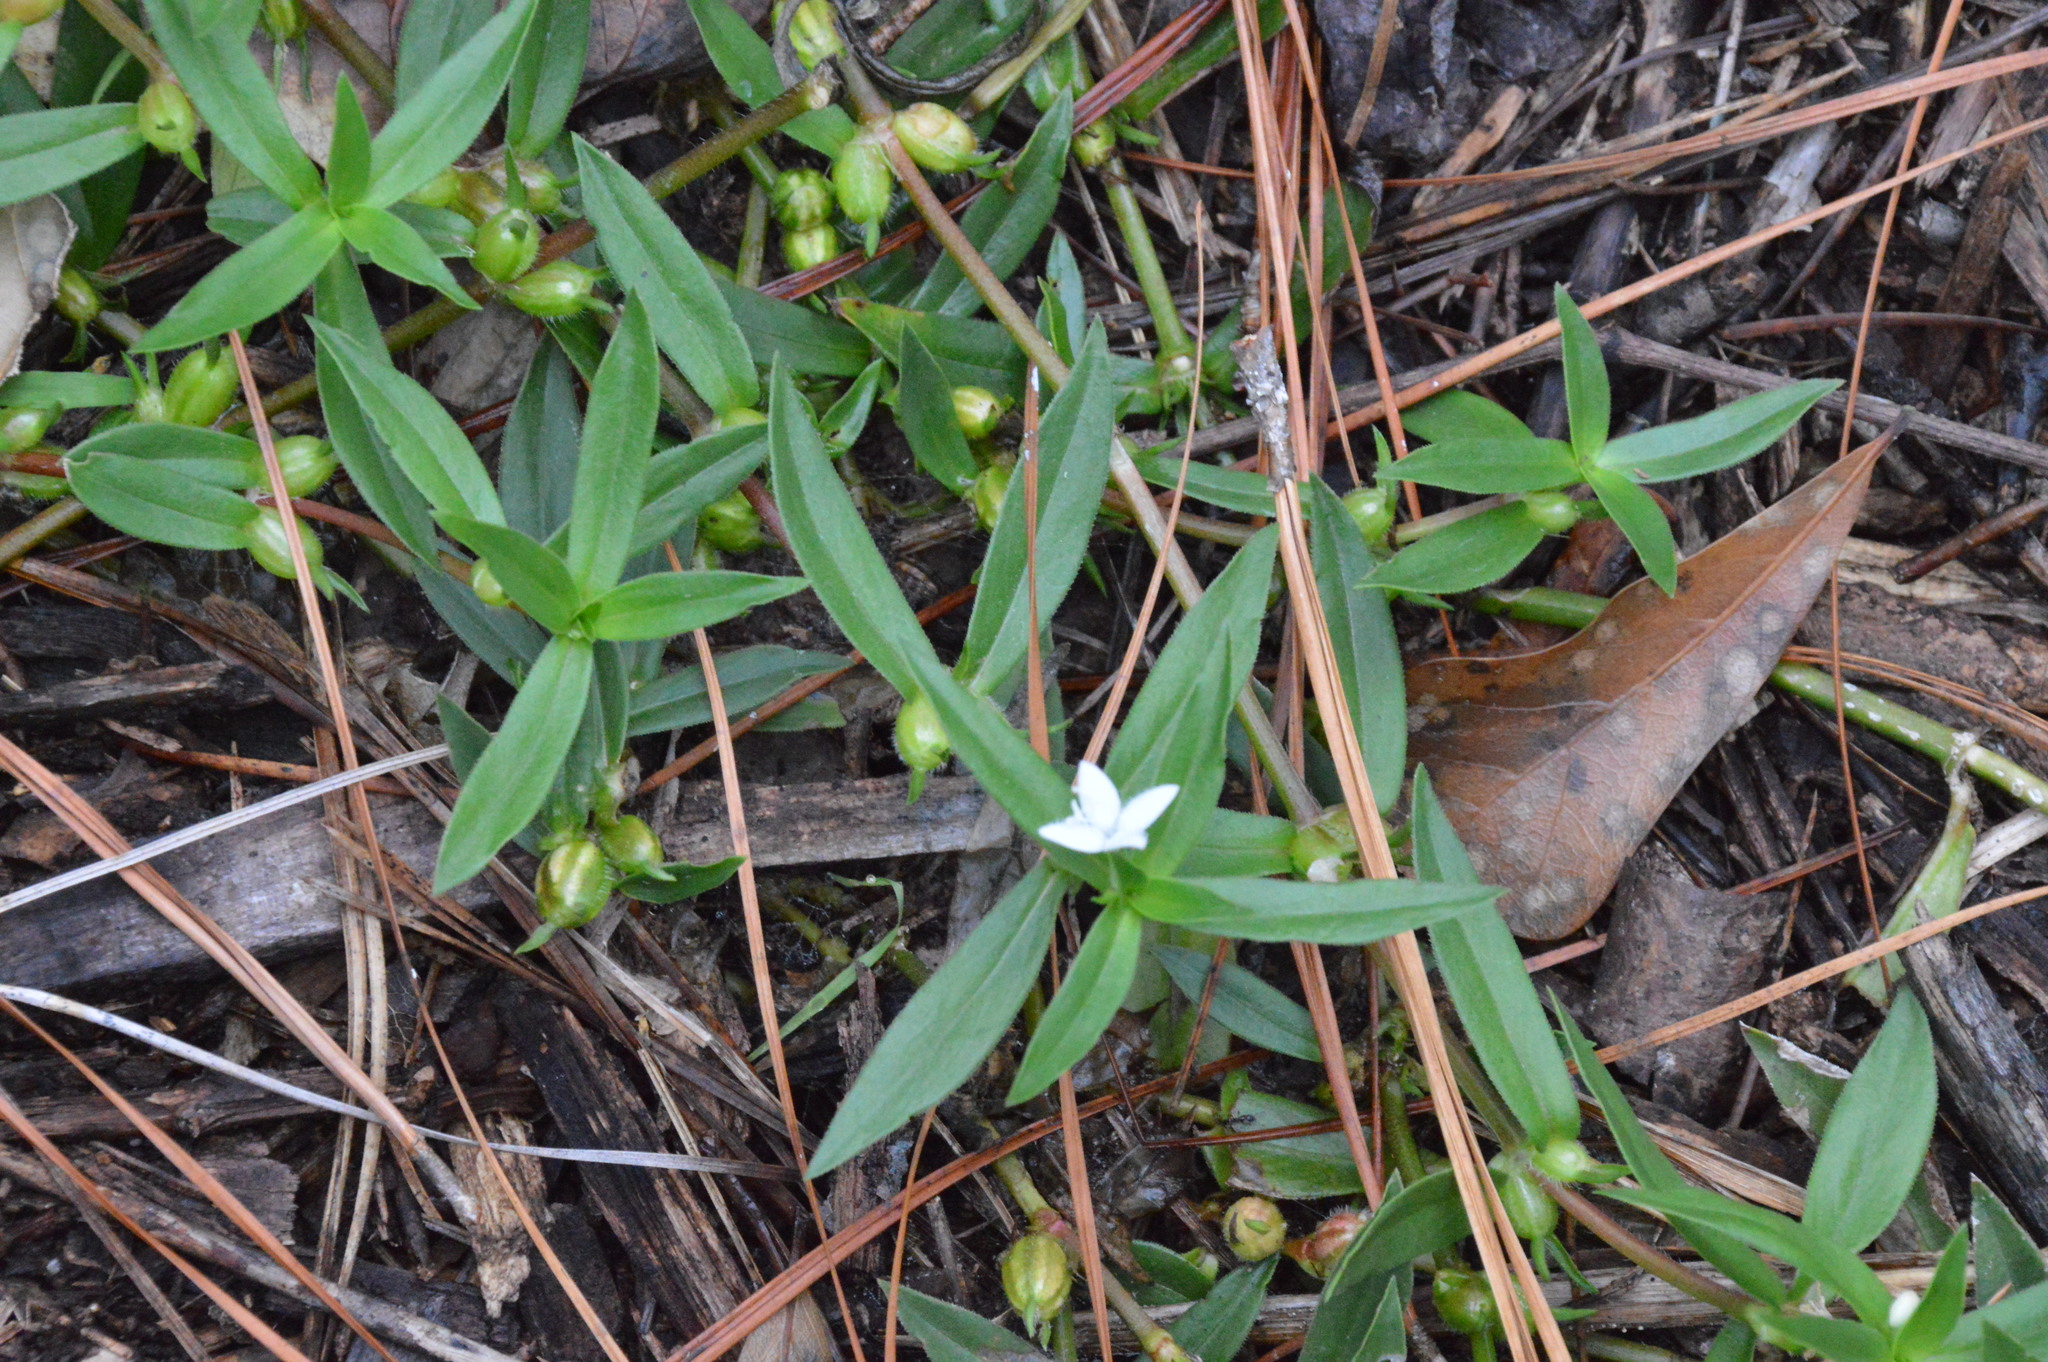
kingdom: Plantae
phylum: Tracheophyta
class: Magnoliopsida
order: Gentianales
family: Rubiaceae
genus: Diodia
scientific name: Diodia virginiana
